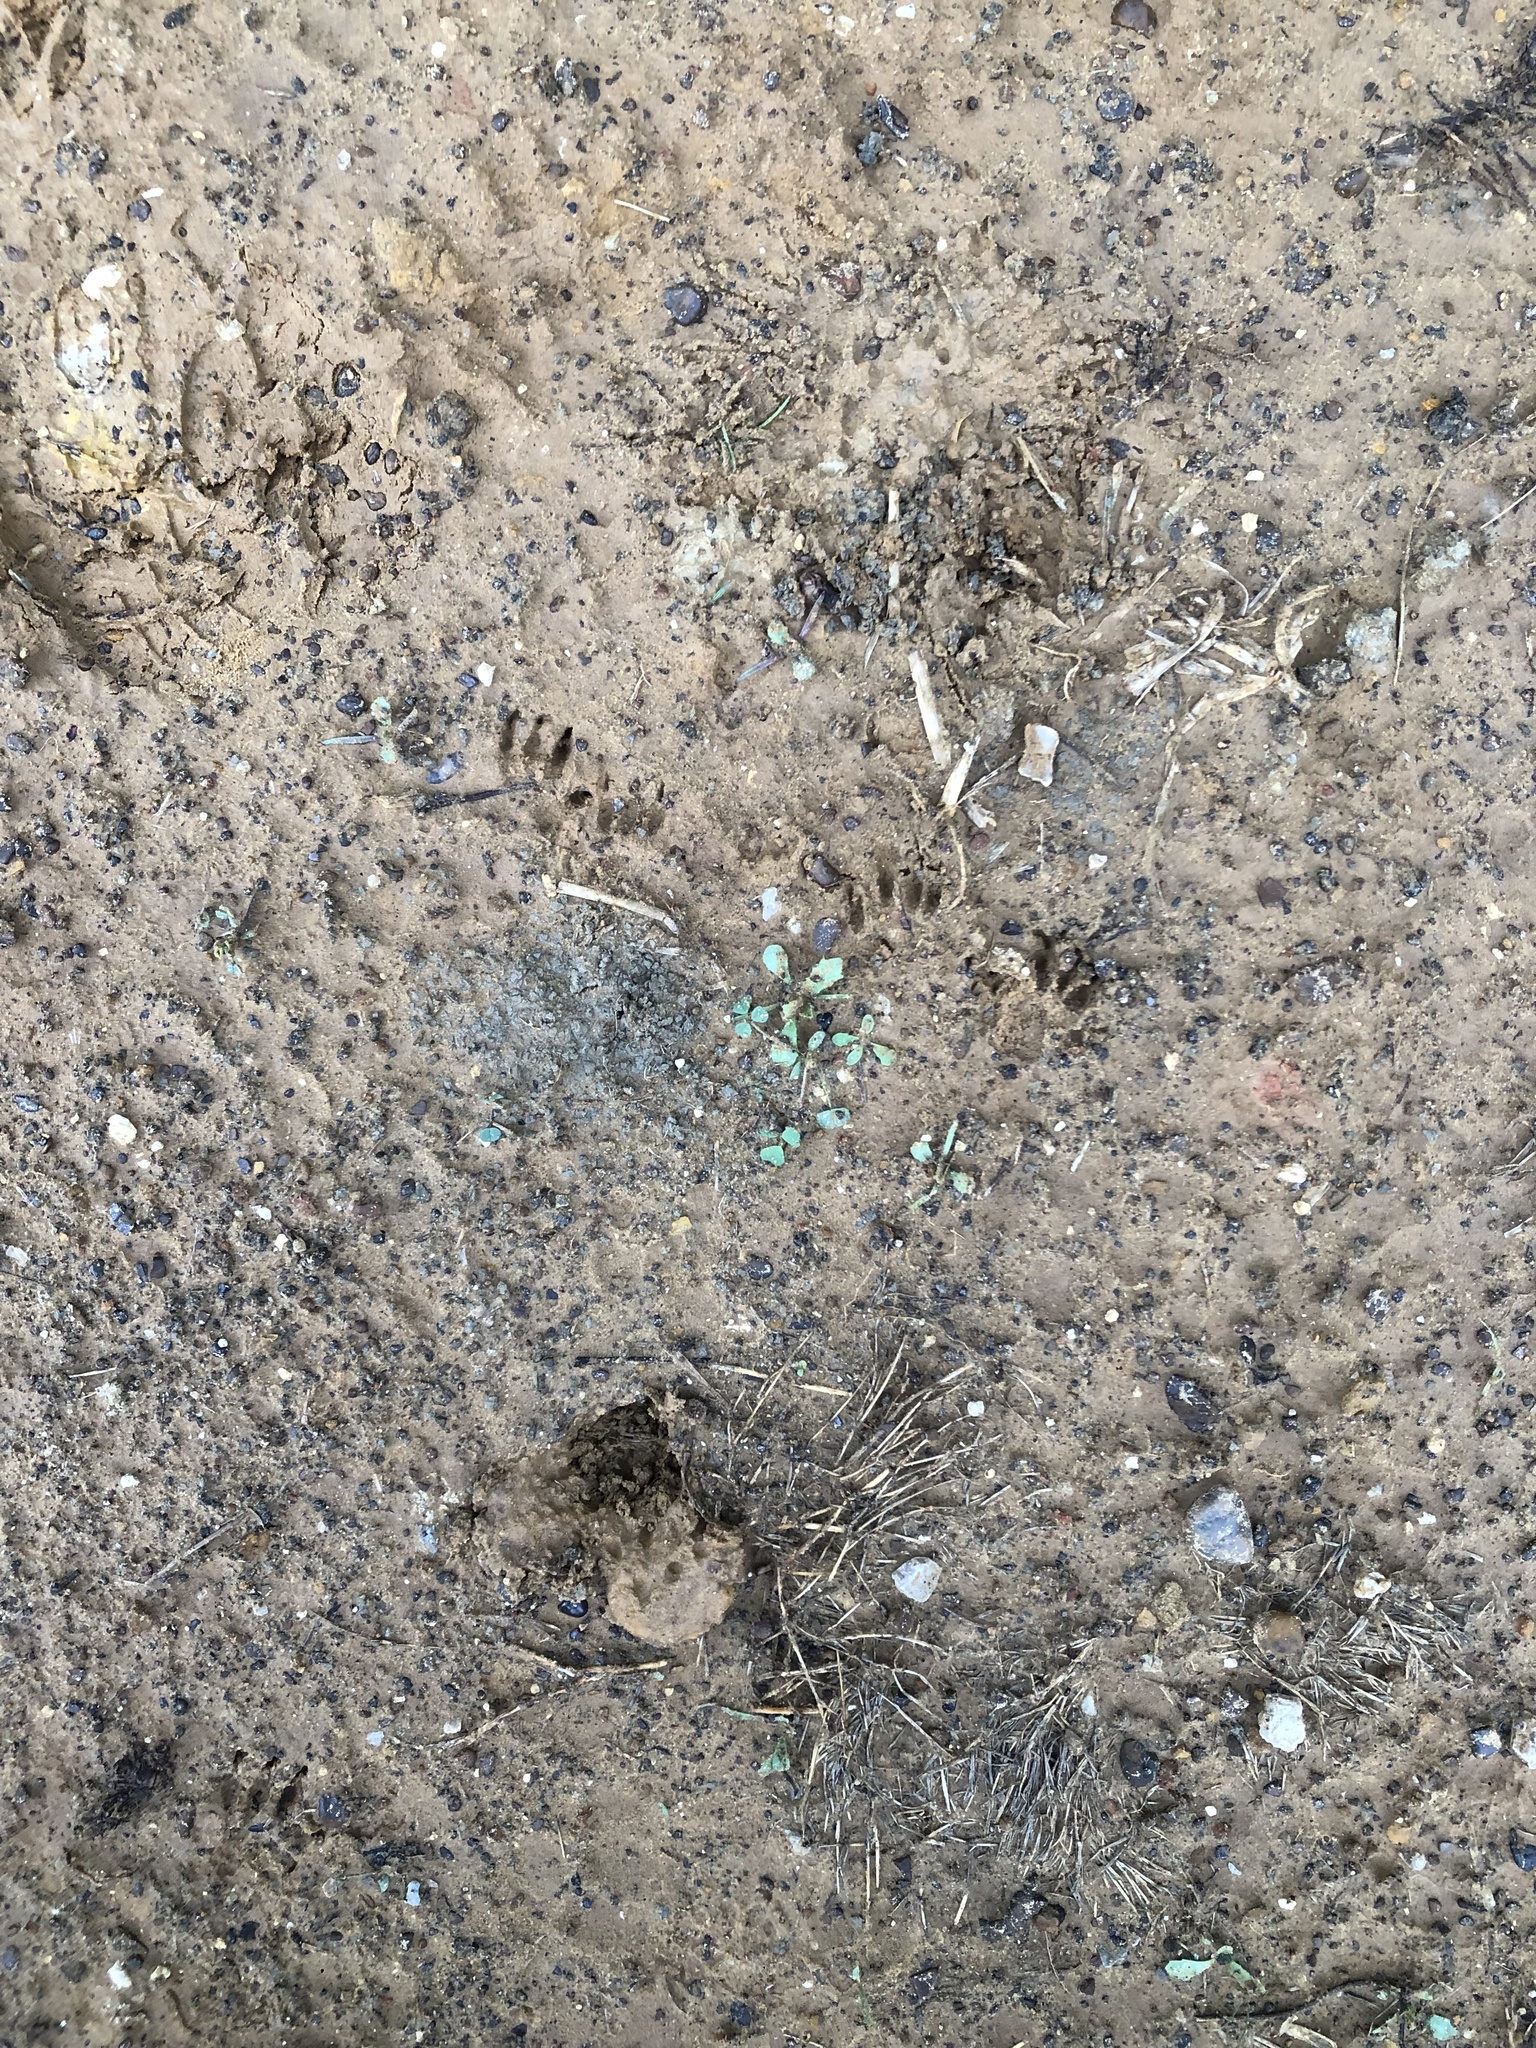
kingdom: Animalia
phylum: Chordata
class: Mammalia
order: Rodentia
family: Sciuridae
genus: Sciurus
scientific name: Sciurus niger
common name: Fox squirrel
